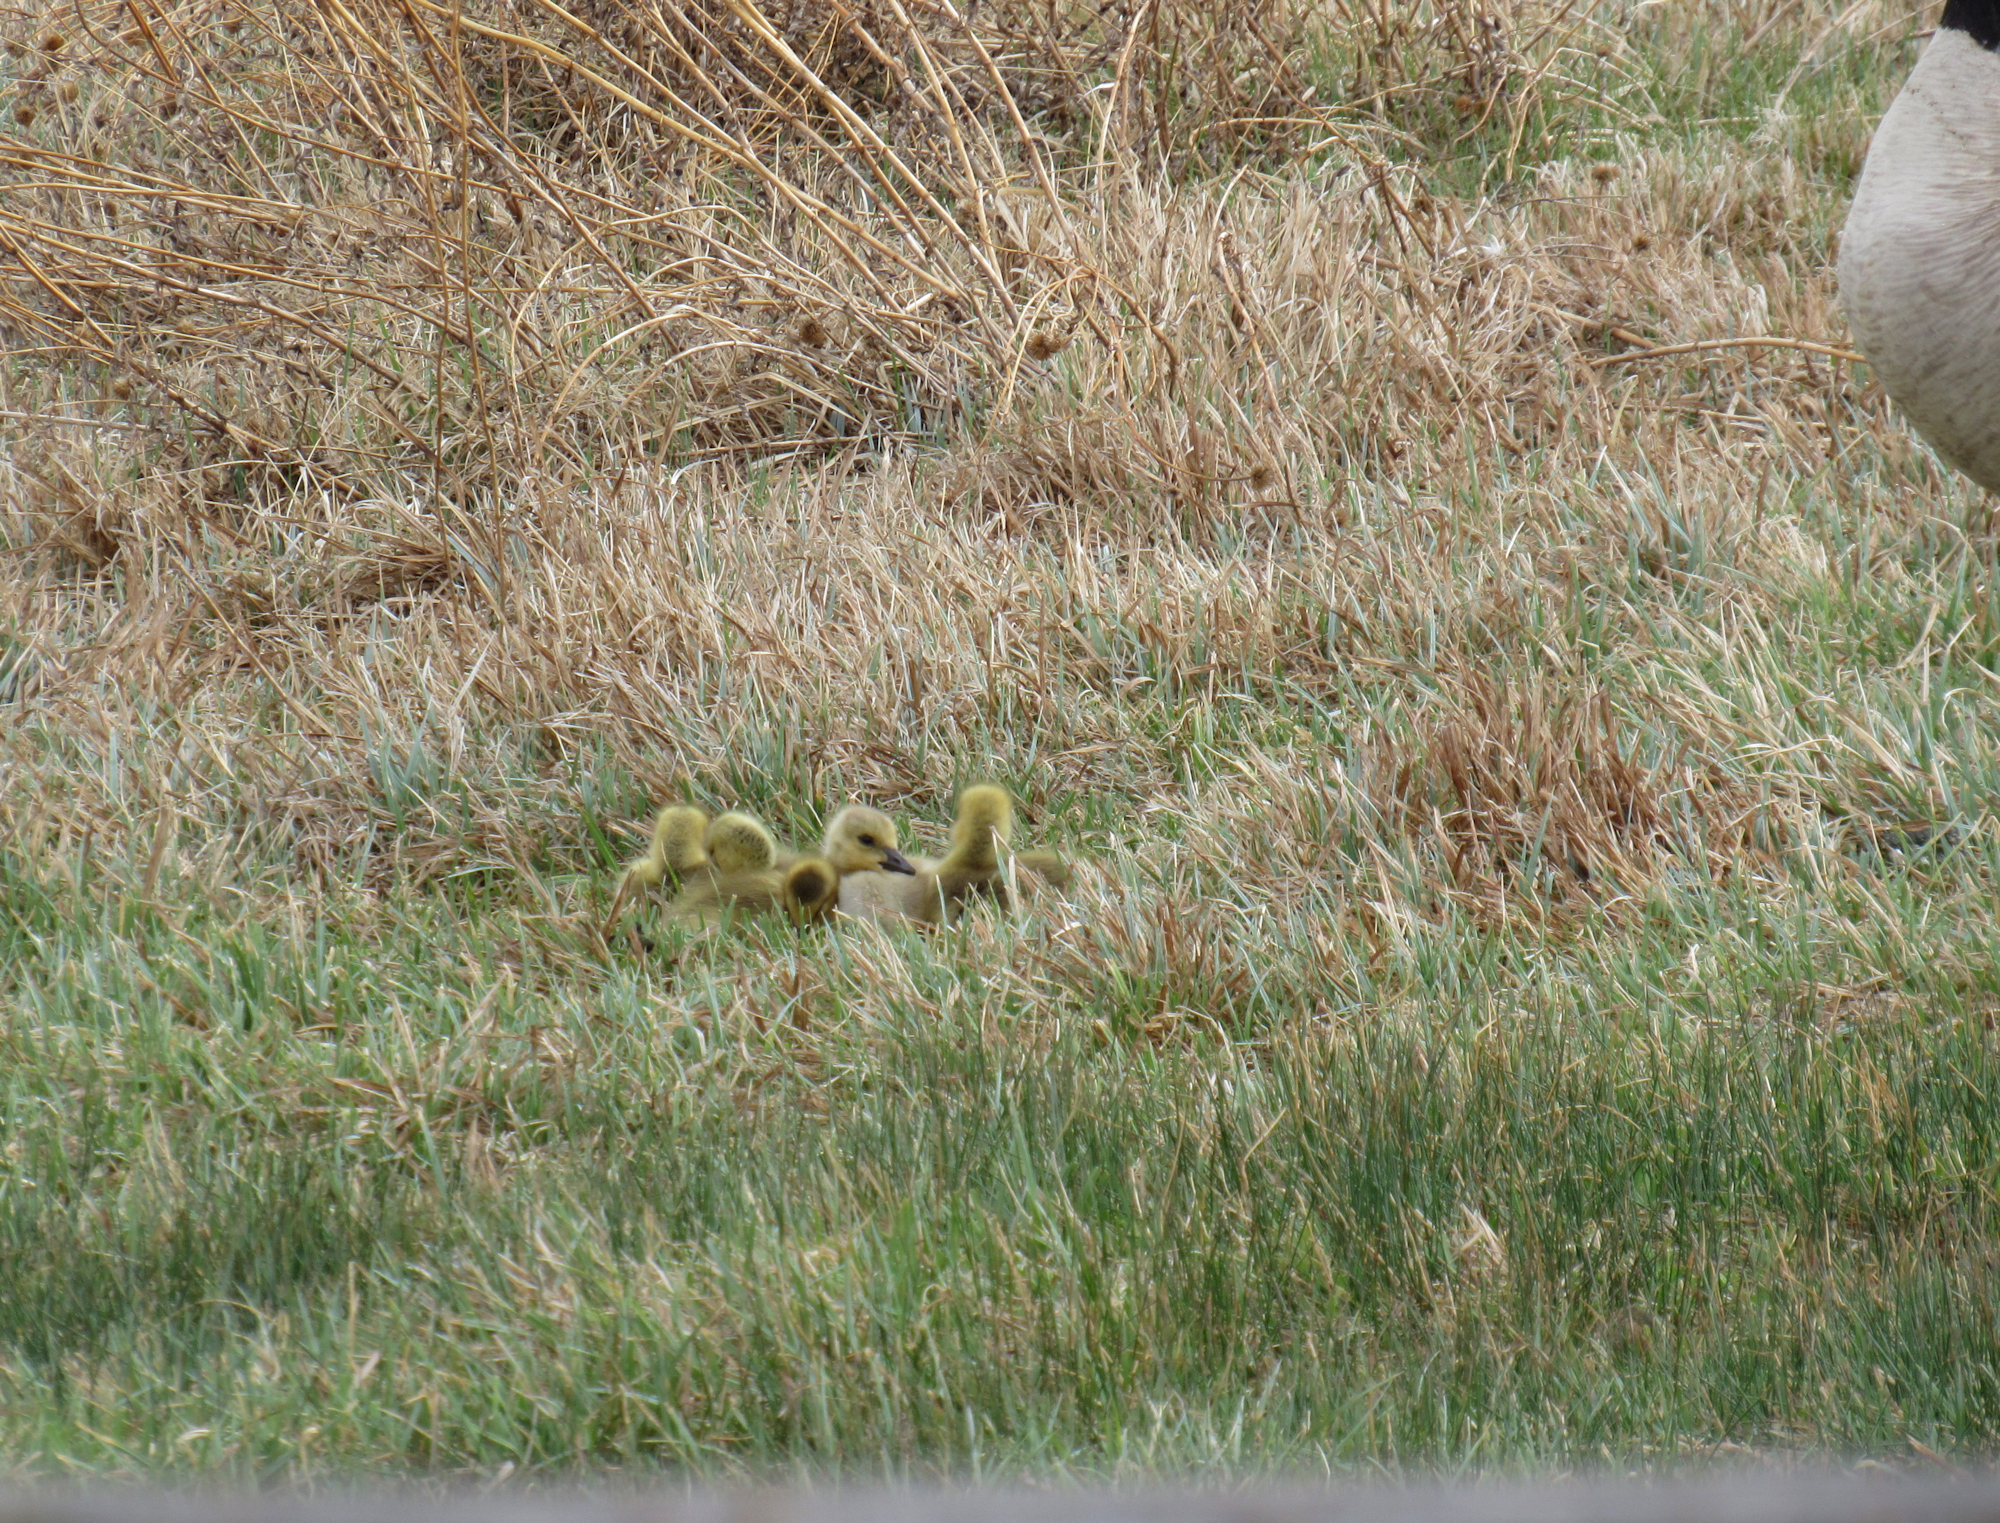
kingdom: Animalia
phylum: Chordata
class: Aves
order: Anseriformes
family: Anatidae
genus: Branta
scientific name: Branta canadensis
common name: Canada goose
